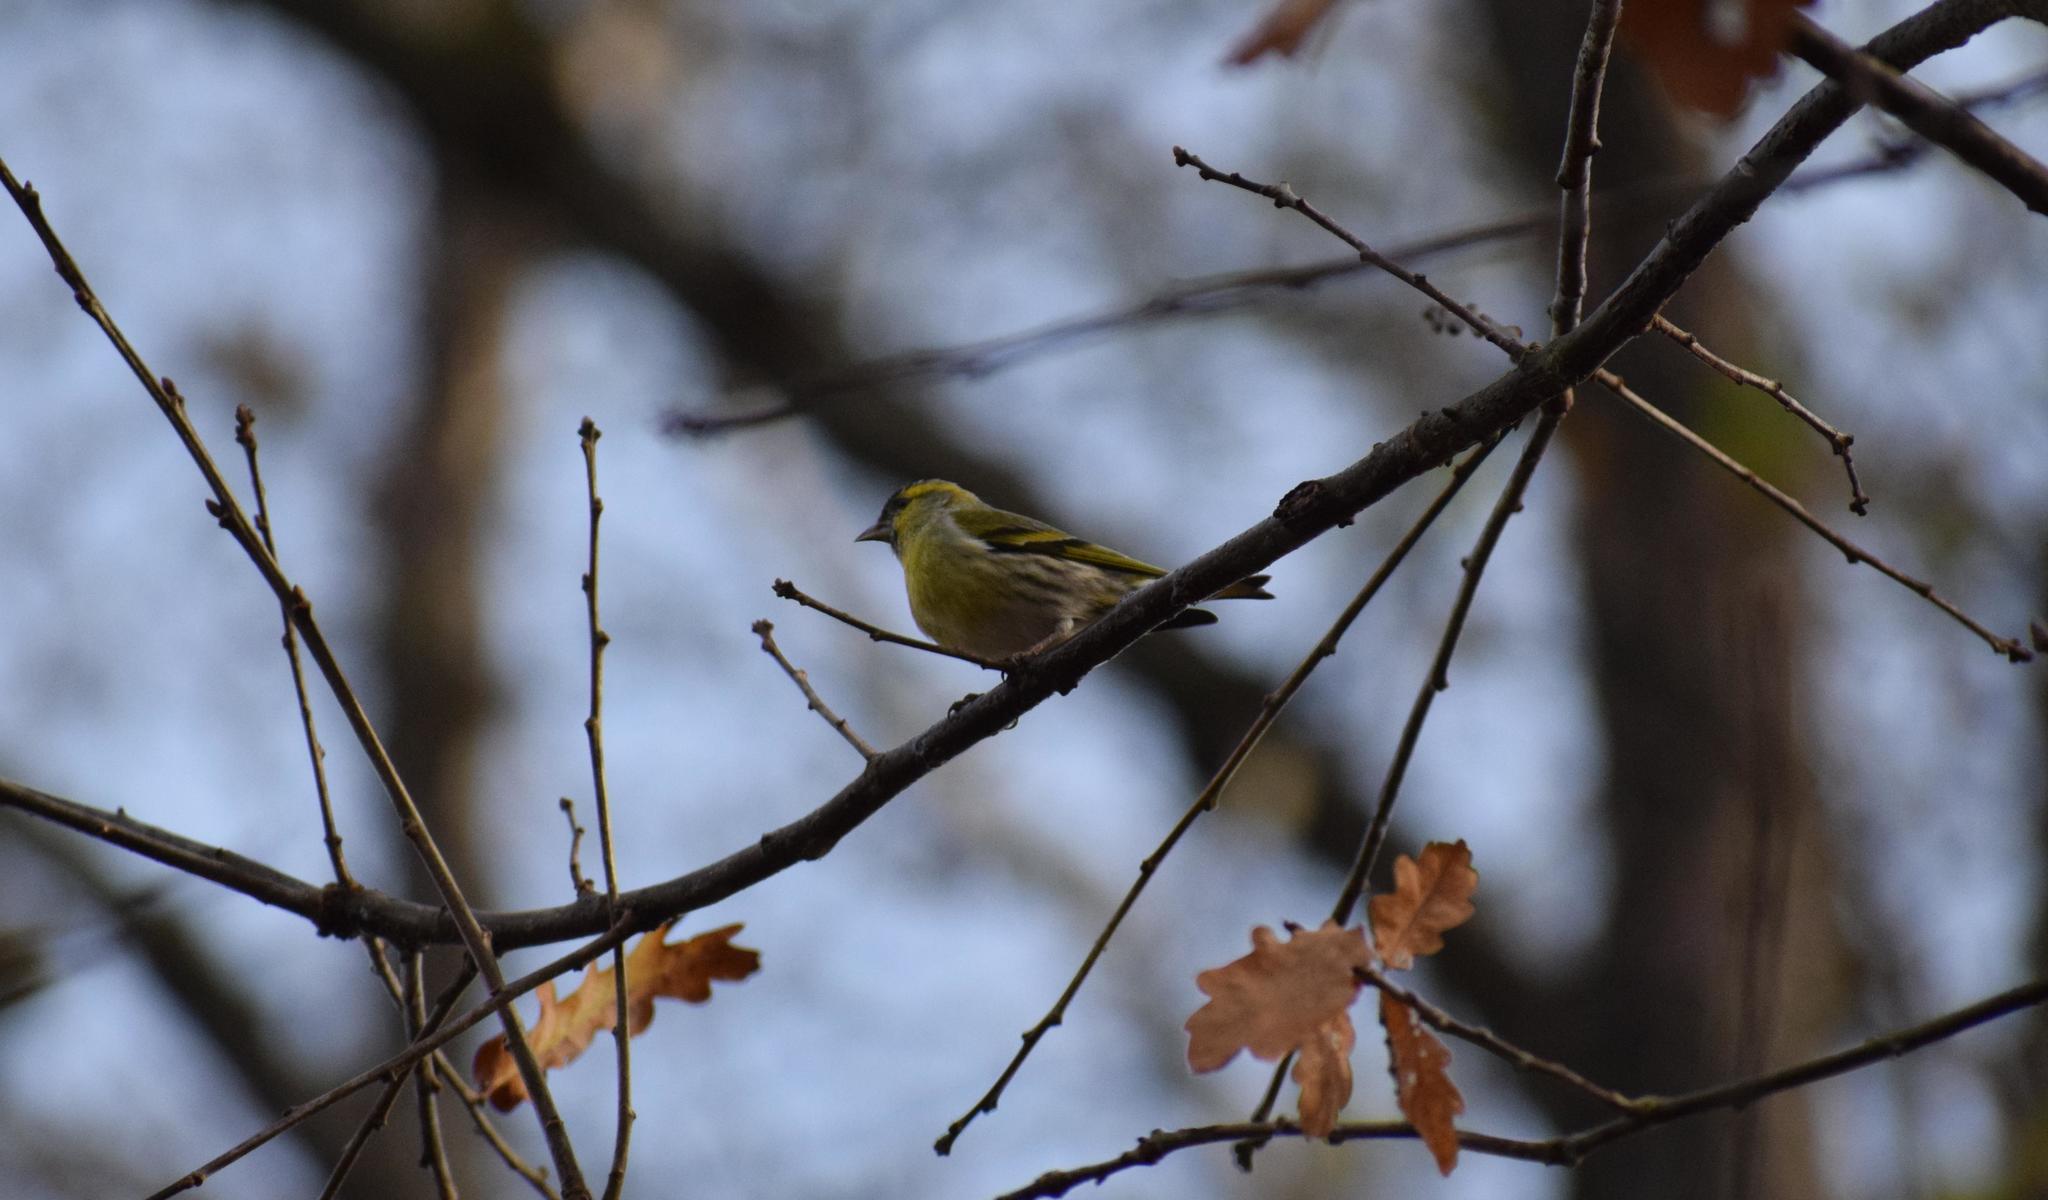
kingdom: Animalia
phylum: Chordata
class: Aves
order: Passeriformes
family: Fringillidae
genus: Spinus
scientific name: Spinus spinus
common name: Eurasian siskin
